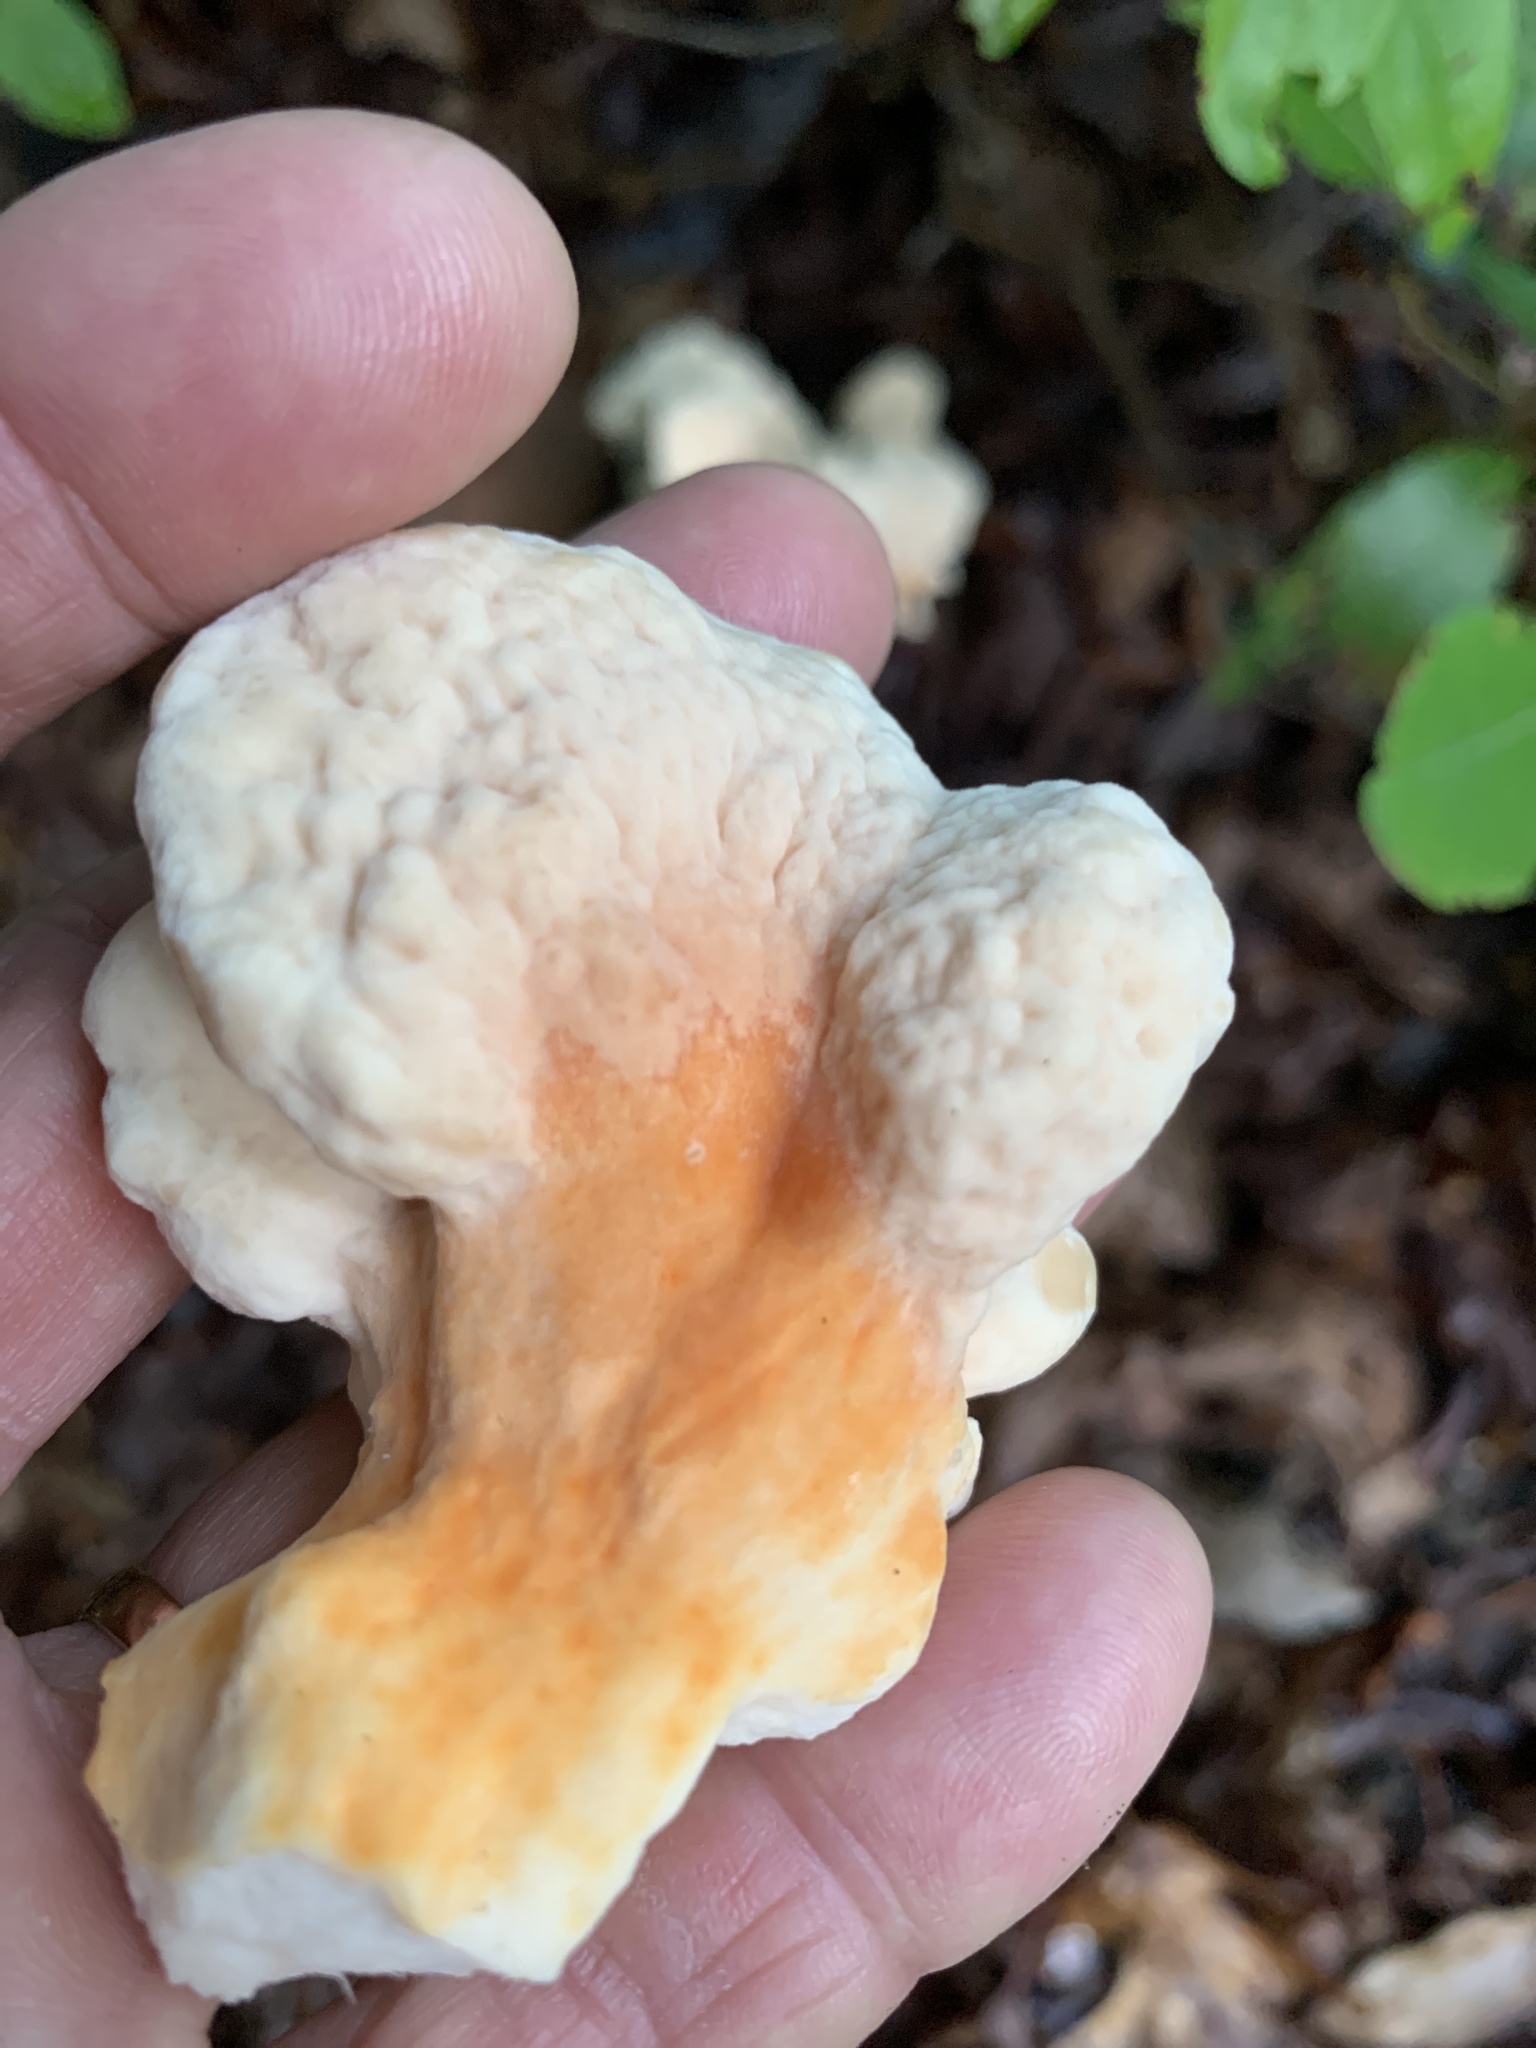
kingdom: Fungi
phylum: Basidiomycota
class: Agaricomycetes
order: Polyporales
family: Laetiporaceae
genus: Laetiporus
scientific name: Laetiporus sulphureus
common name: Chicken of the woods
